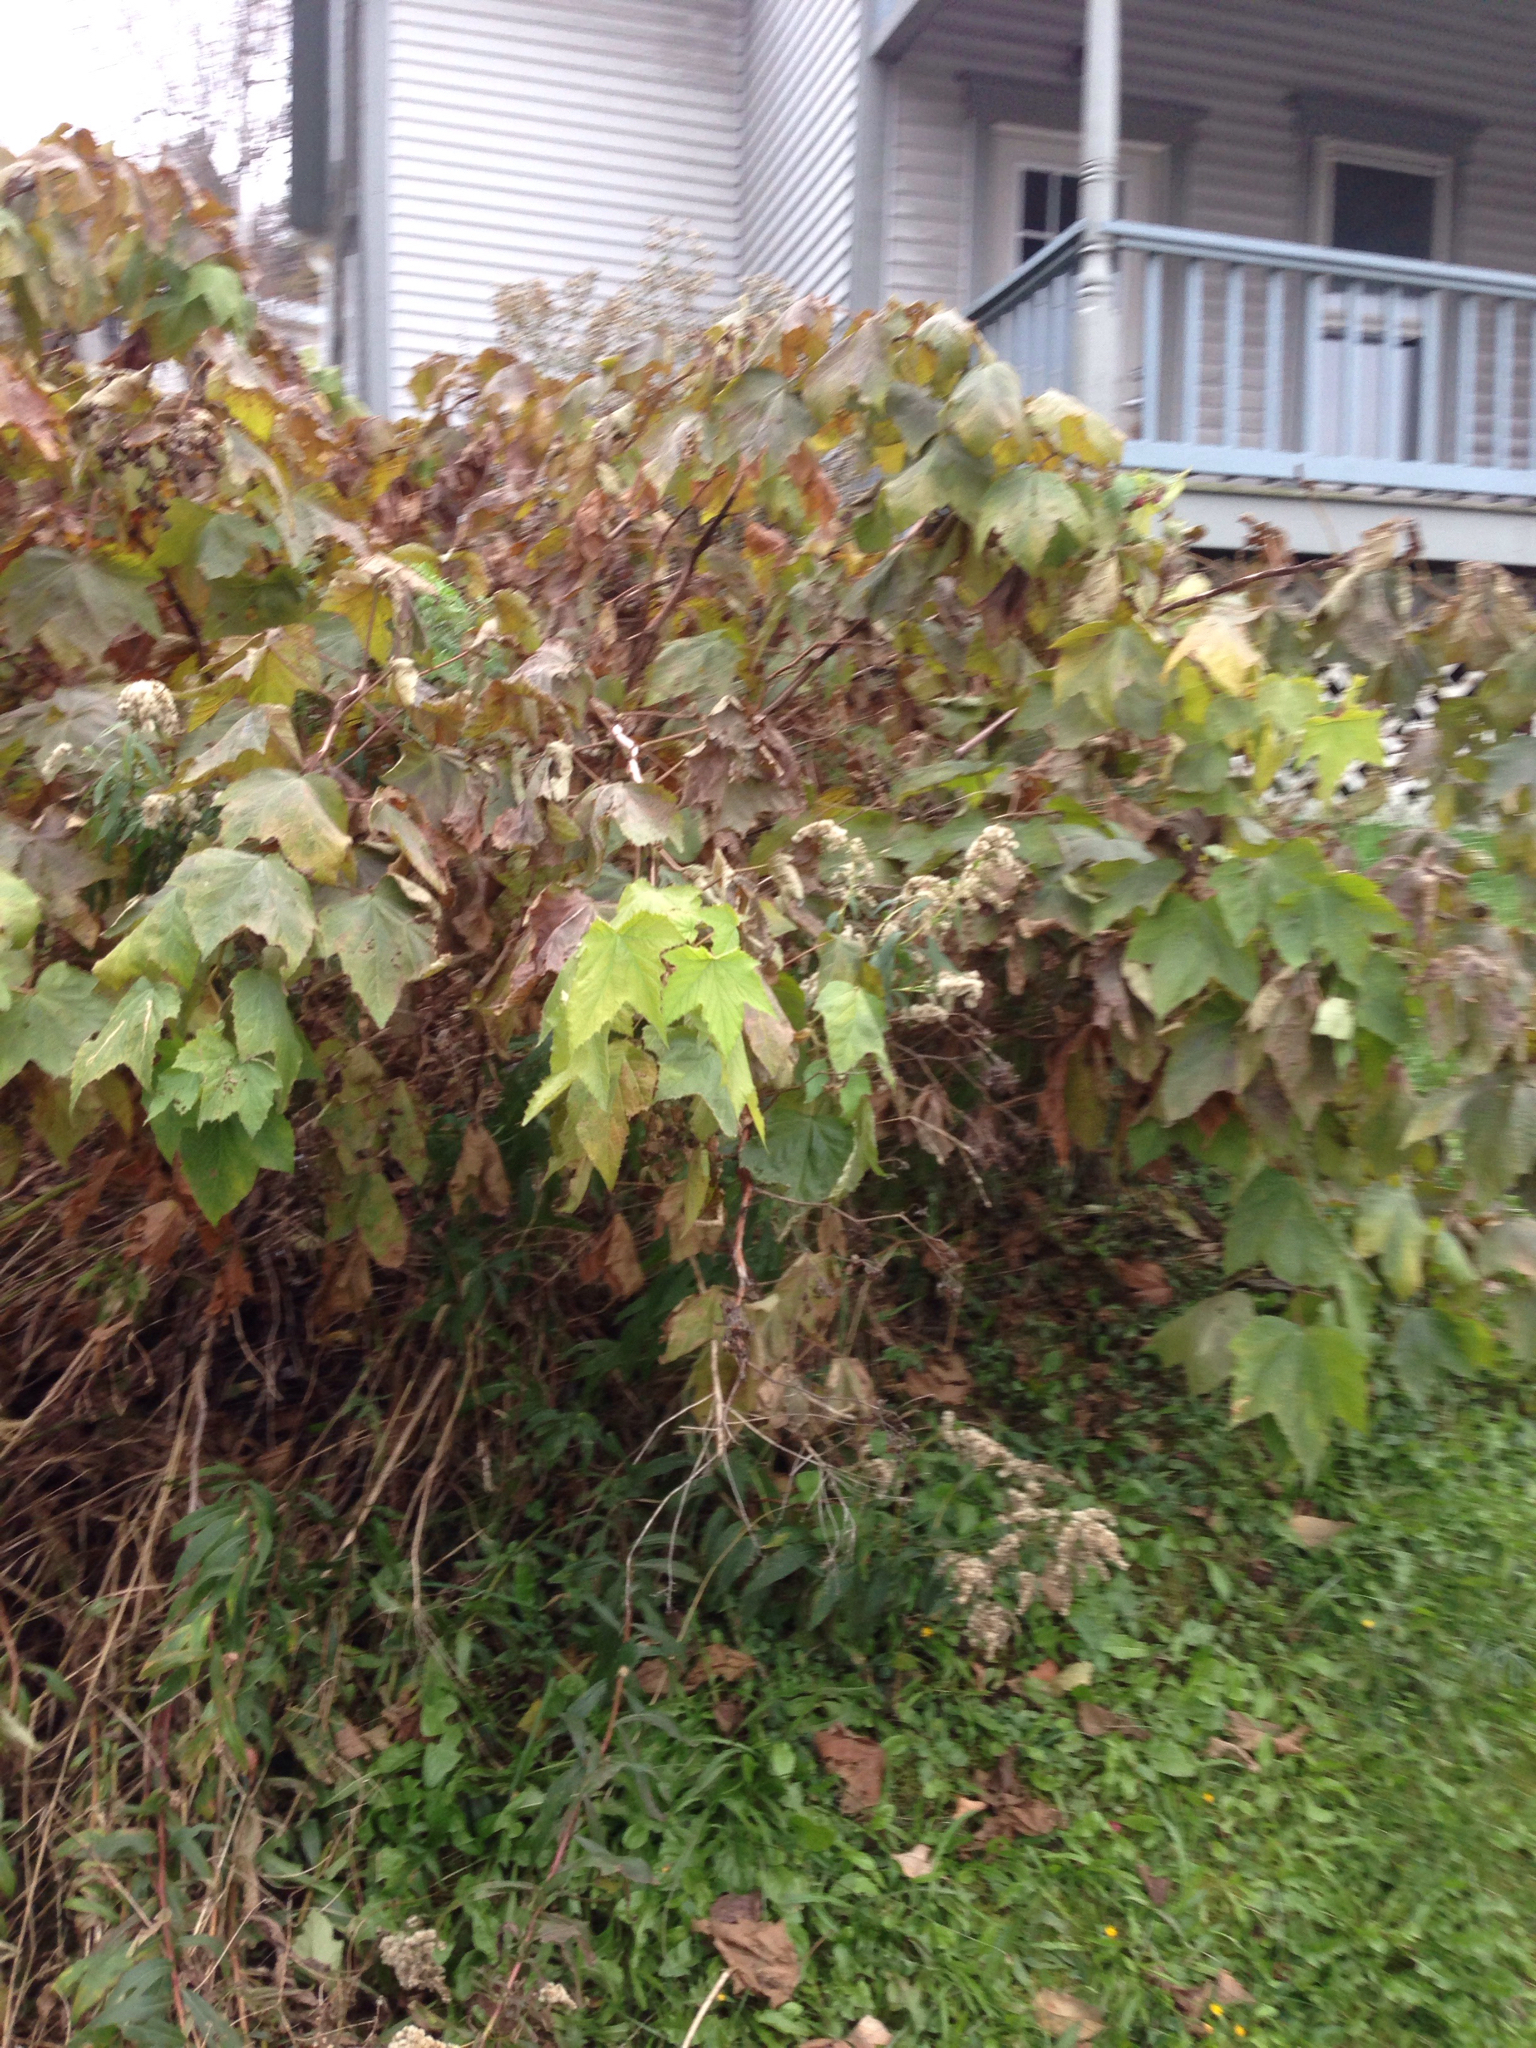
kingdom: Plantae
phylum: Tracheophyta
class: Magnoliopsida
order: Rosales
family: Rosaceae
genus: Rubus
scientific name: Rubus odoratus
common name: Purple-flowered raspberry
